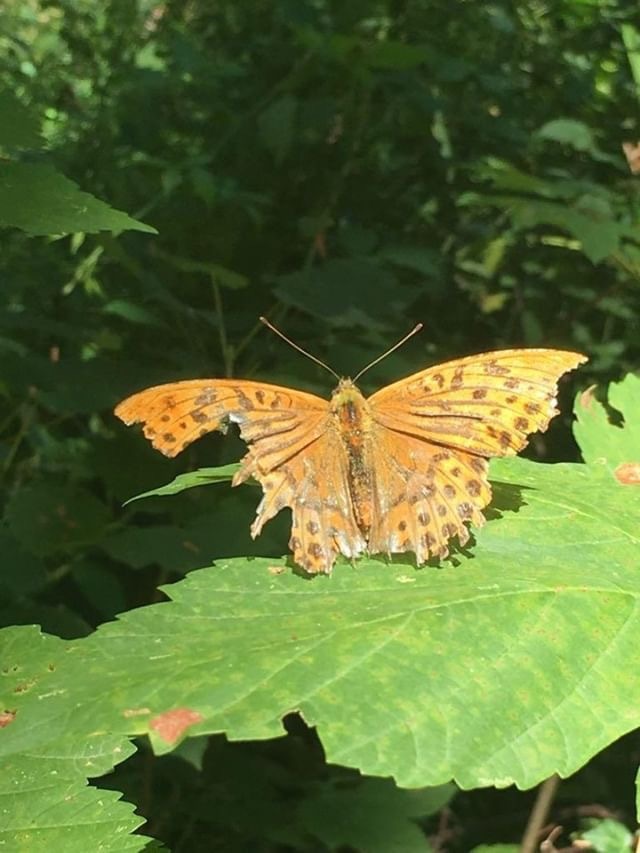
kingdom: Animalia
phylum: Arthropoda
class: Insecta
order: Lepidoptera
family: Nymphalidae
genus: Argynnis
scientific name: Argynnis paphia
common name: Silver-washed fritillary
